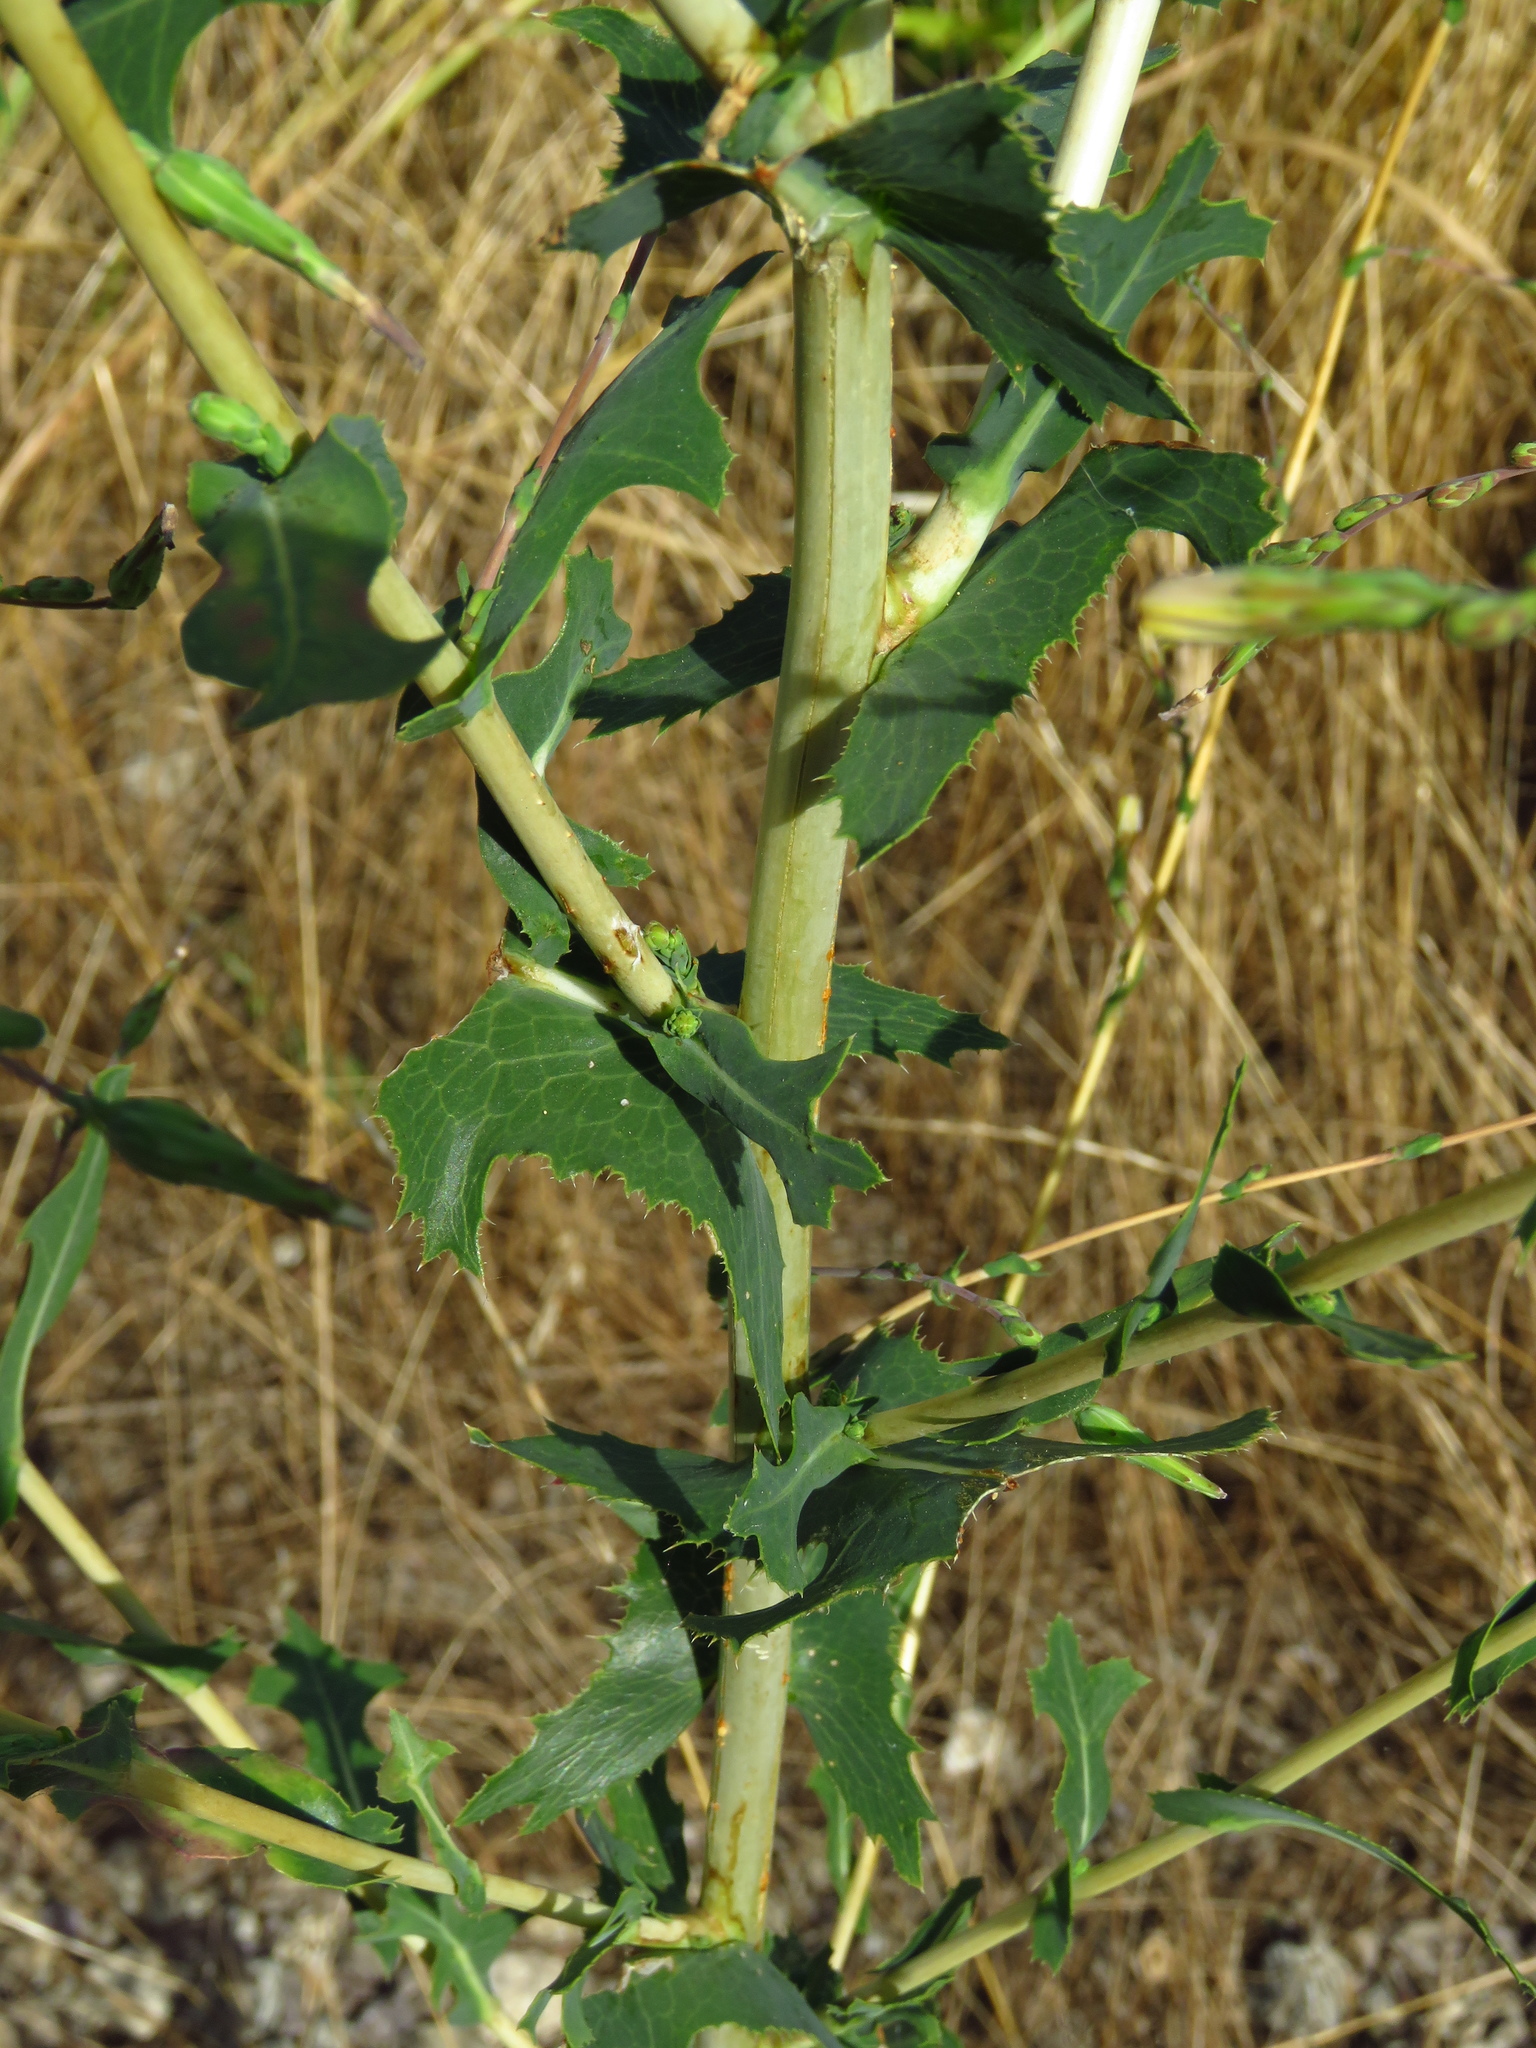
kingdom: Plantae
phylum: Tracheophyta
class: Magnoliopsida
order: Asterales
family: Asteraceae
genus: Lactuca
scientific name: Lactuca serriola
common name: Prickly lettuce
